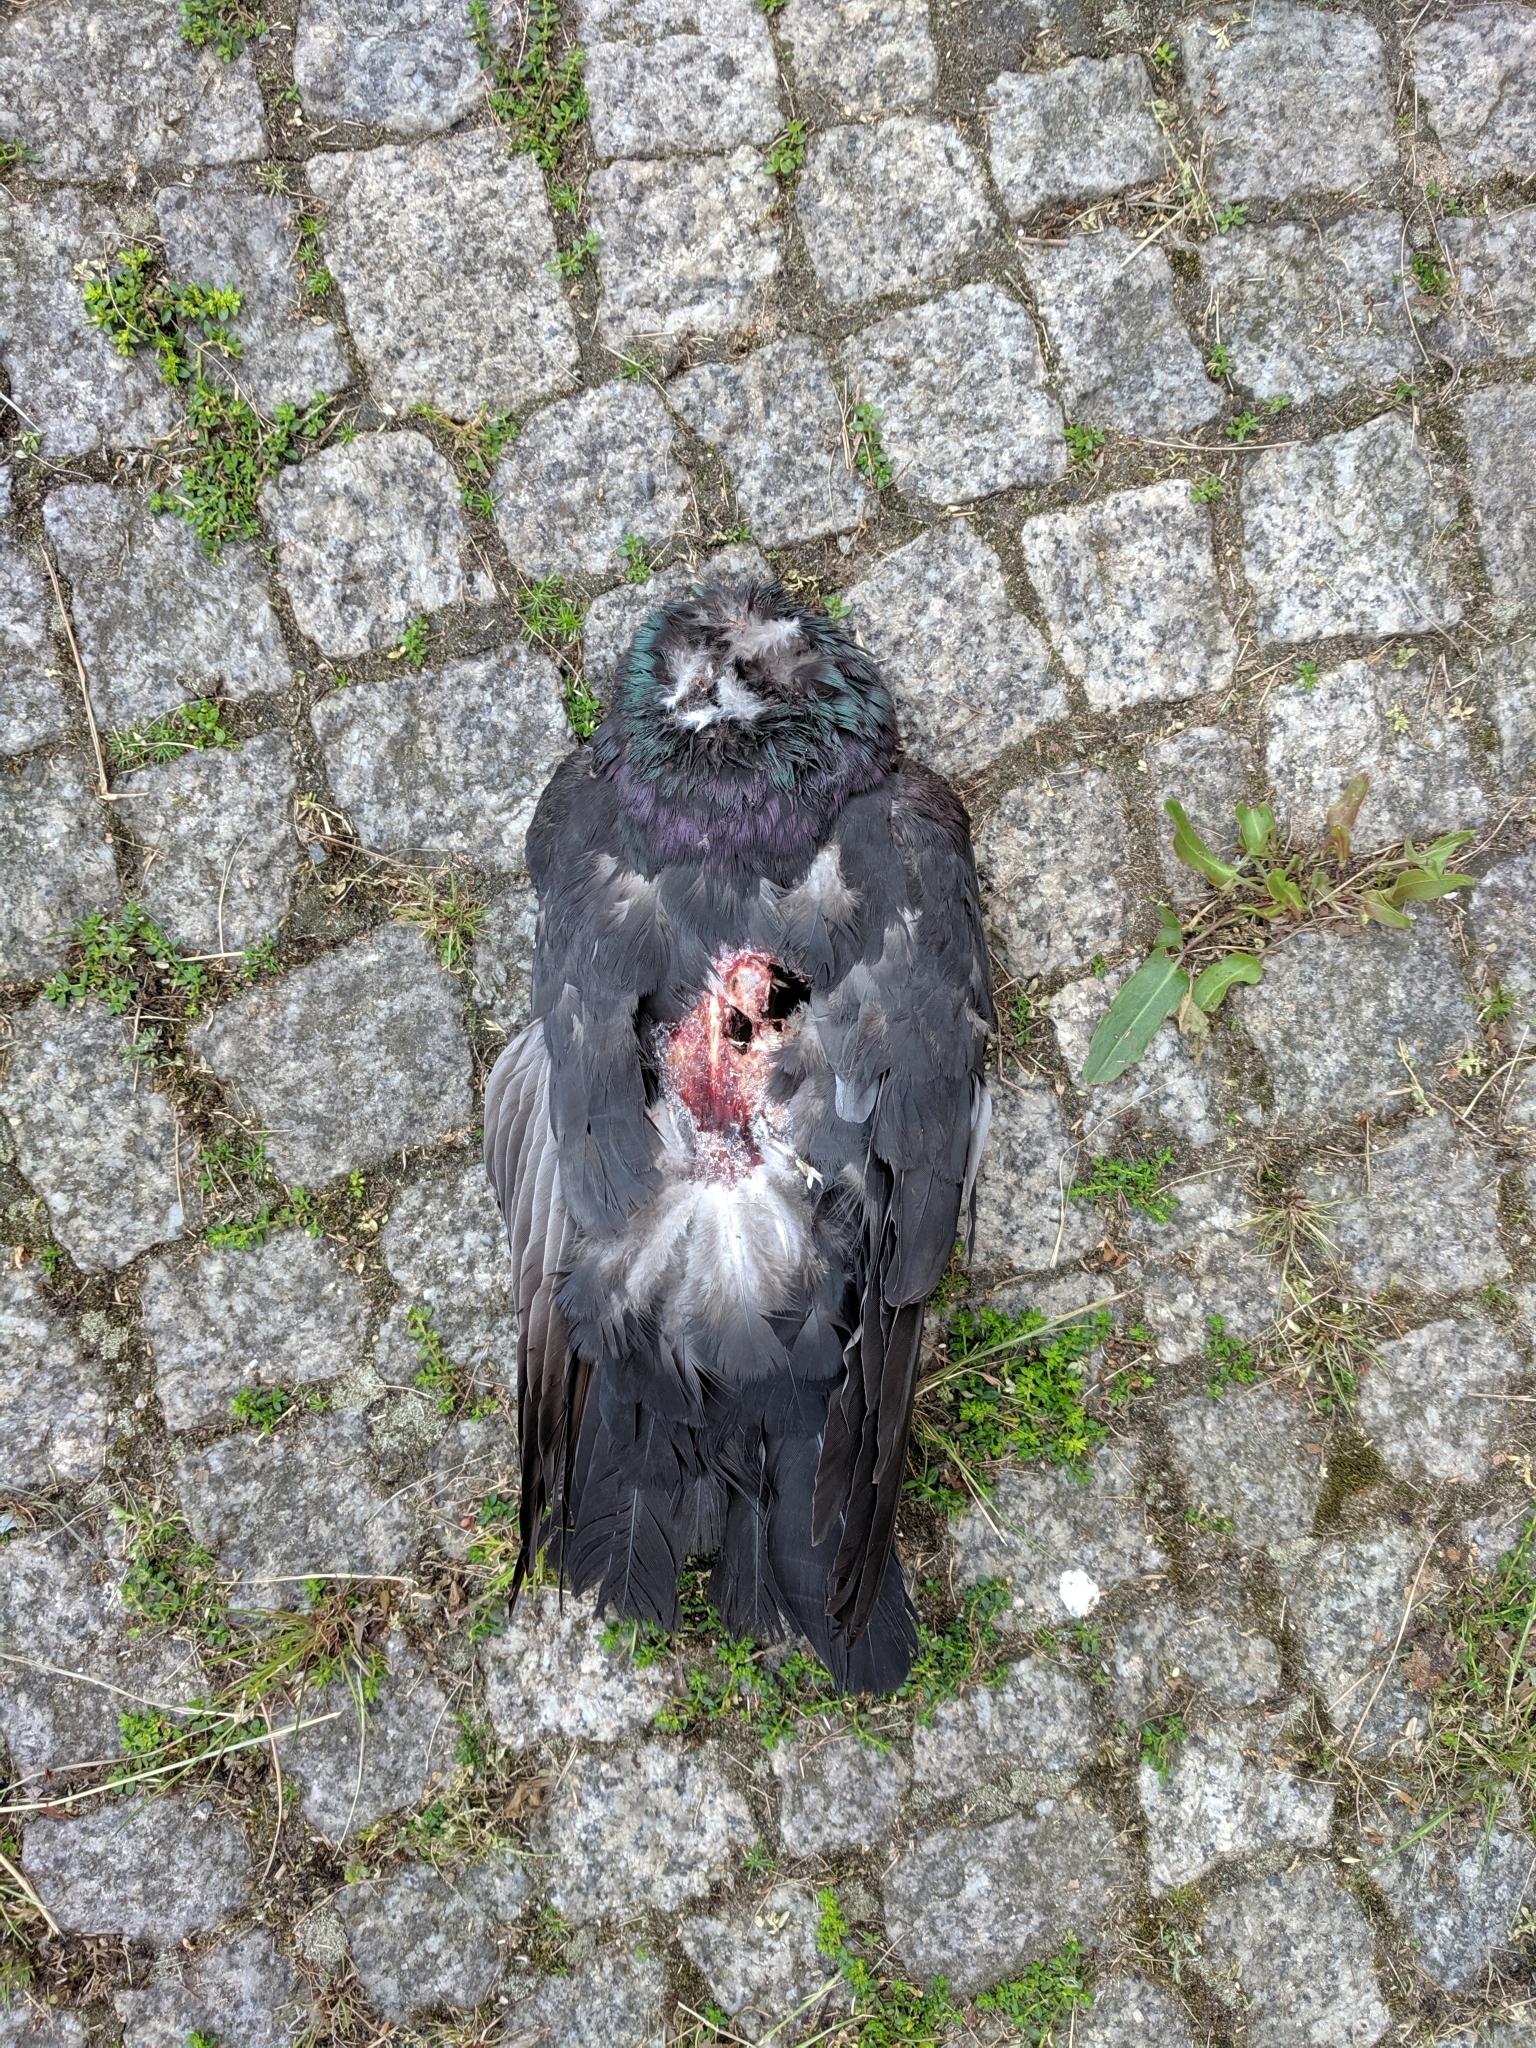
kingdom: Animalia
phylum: Chordata
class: Aves
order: Columbiformes
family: Columbidae
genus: Columba
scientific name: Columba livia
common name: Rock pigeon
